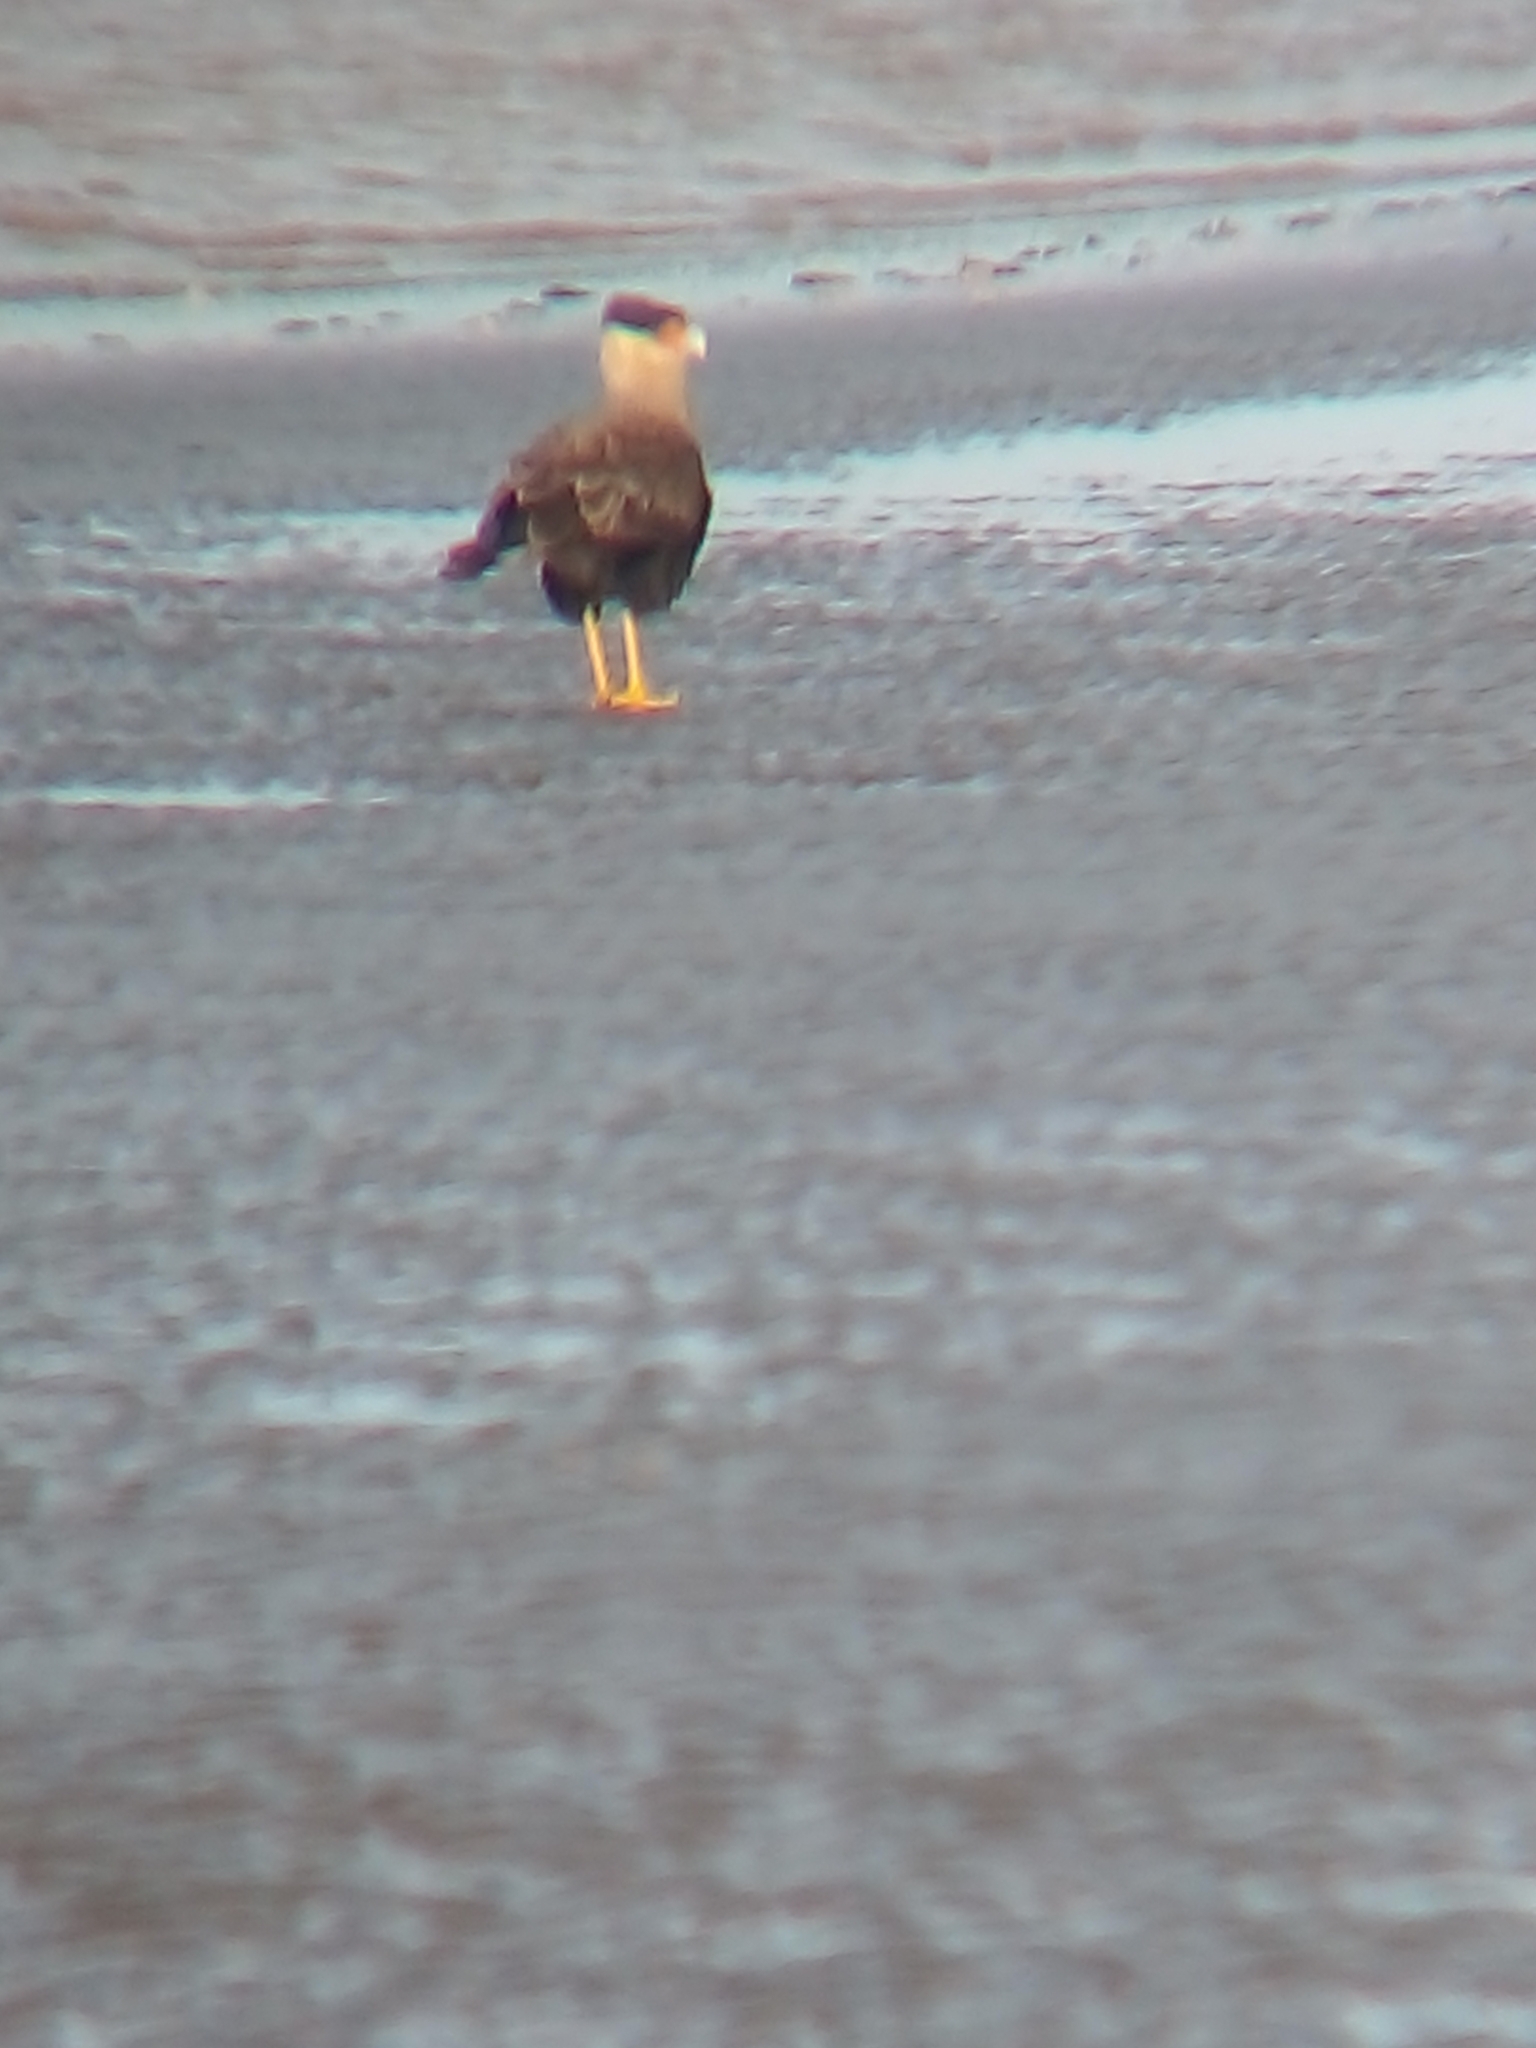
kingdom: Animalia
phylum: Chordata
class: Aves
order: Falconiformes
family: Falconidae
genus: Caracara
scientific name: Caracara plancus
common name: Southern caracara
